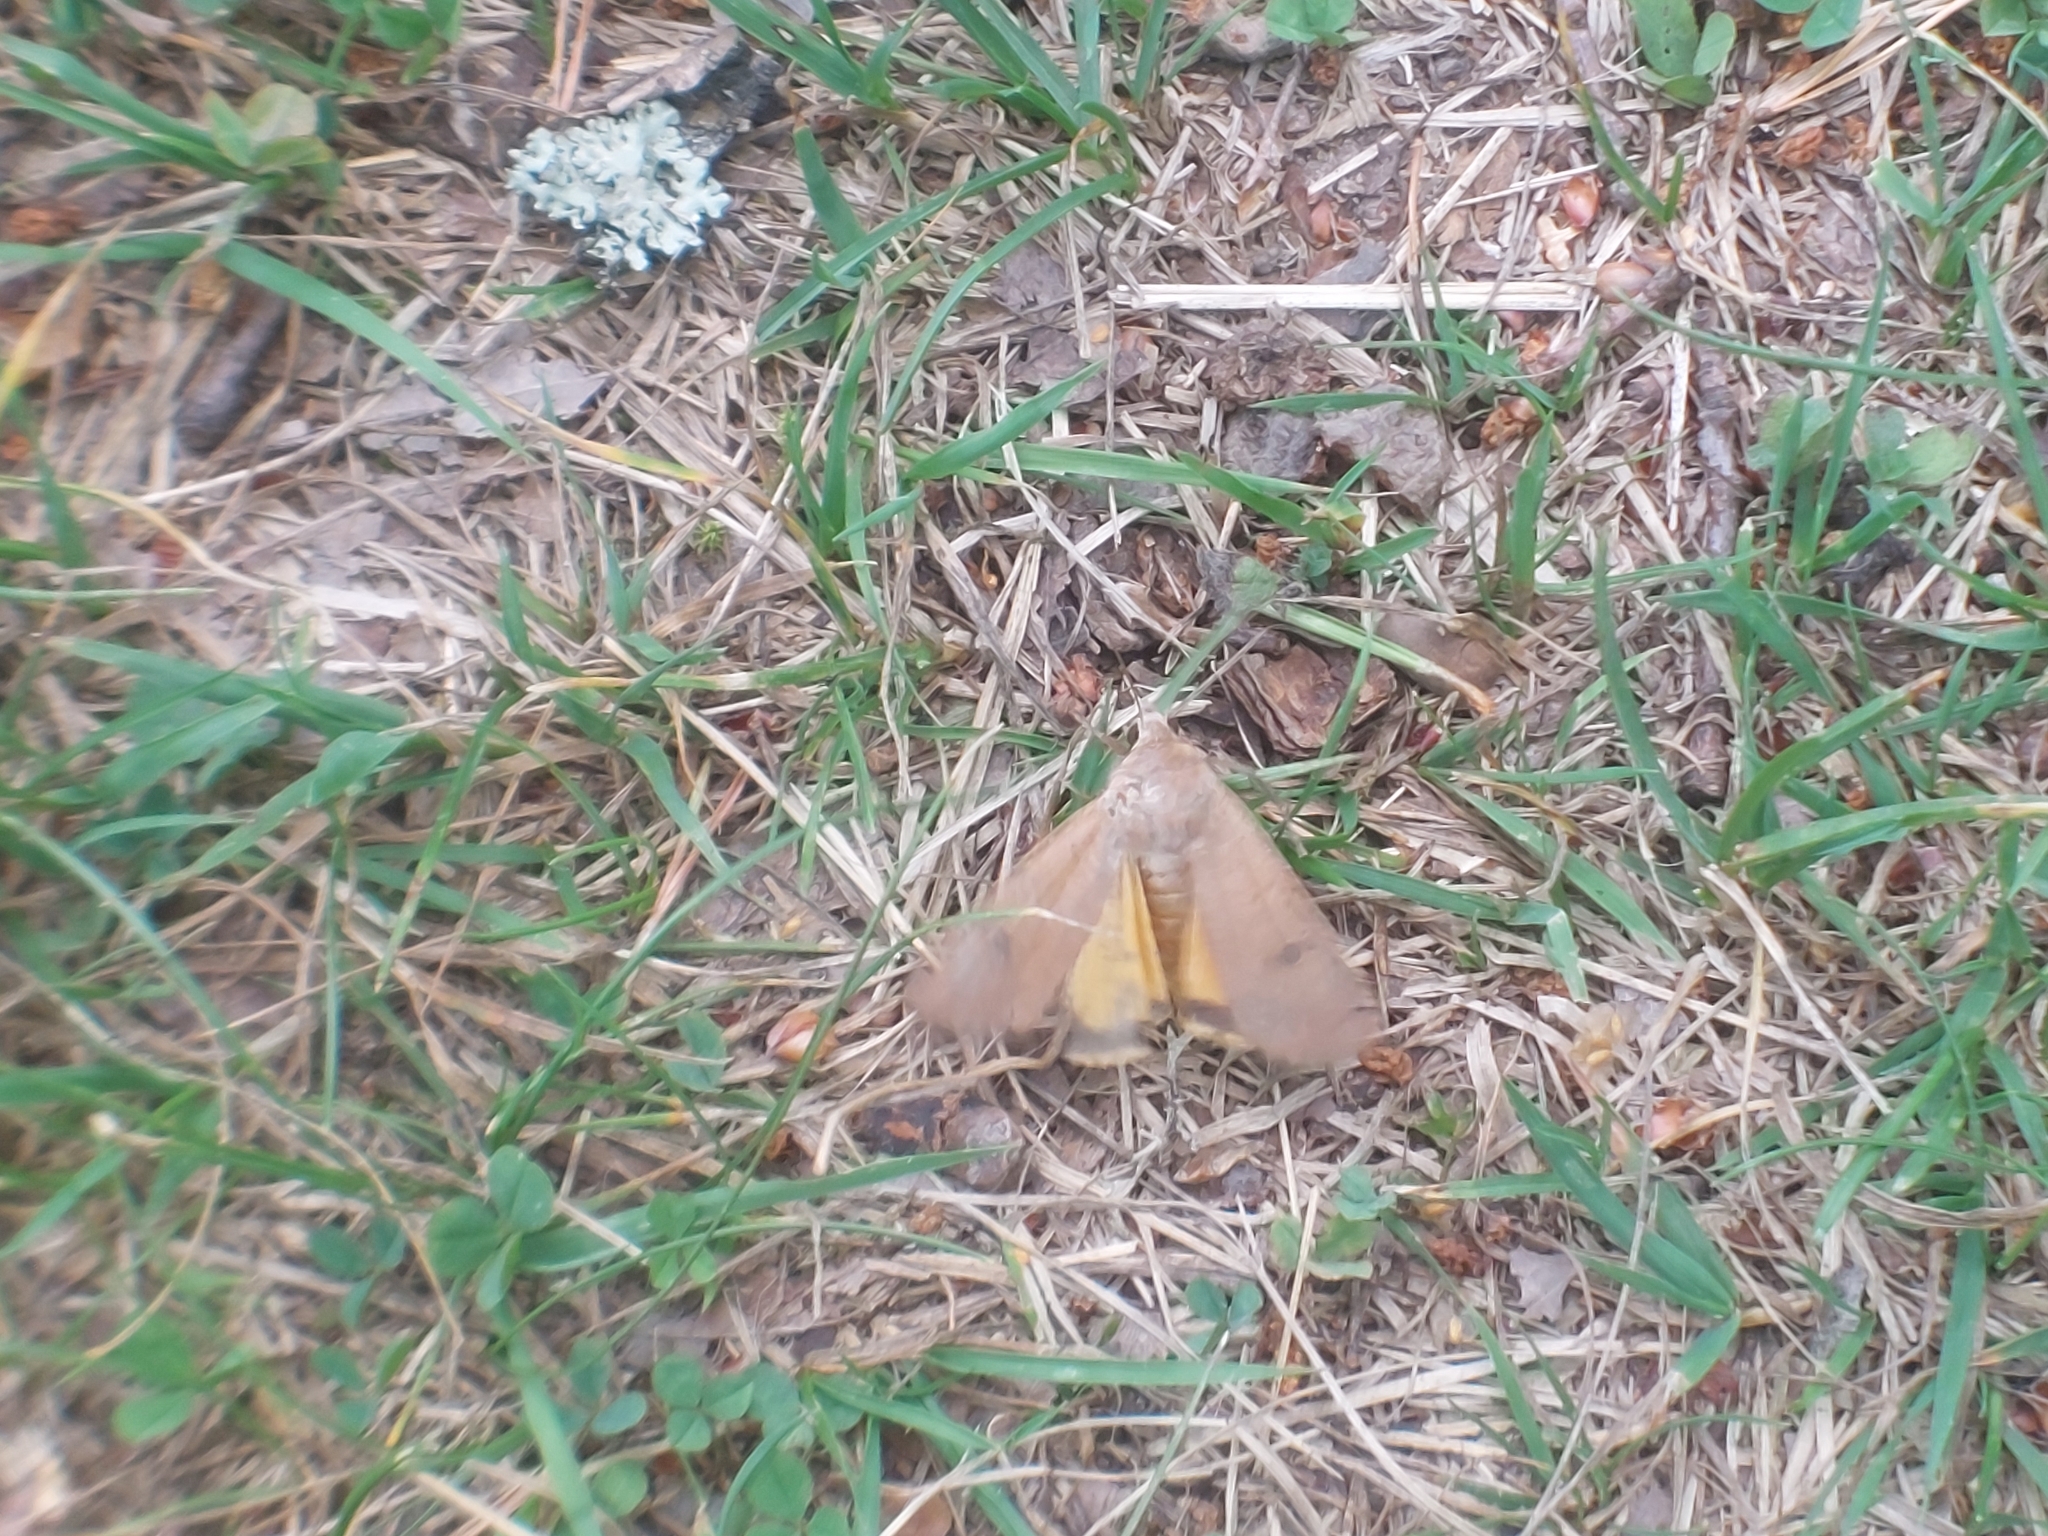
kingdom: Animalia
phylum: Arthropoda
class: Insecta
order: Lepidoptera
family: Noctuidae
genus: Noctua
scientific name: Noctua pronuba
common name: Large yellow underwing
